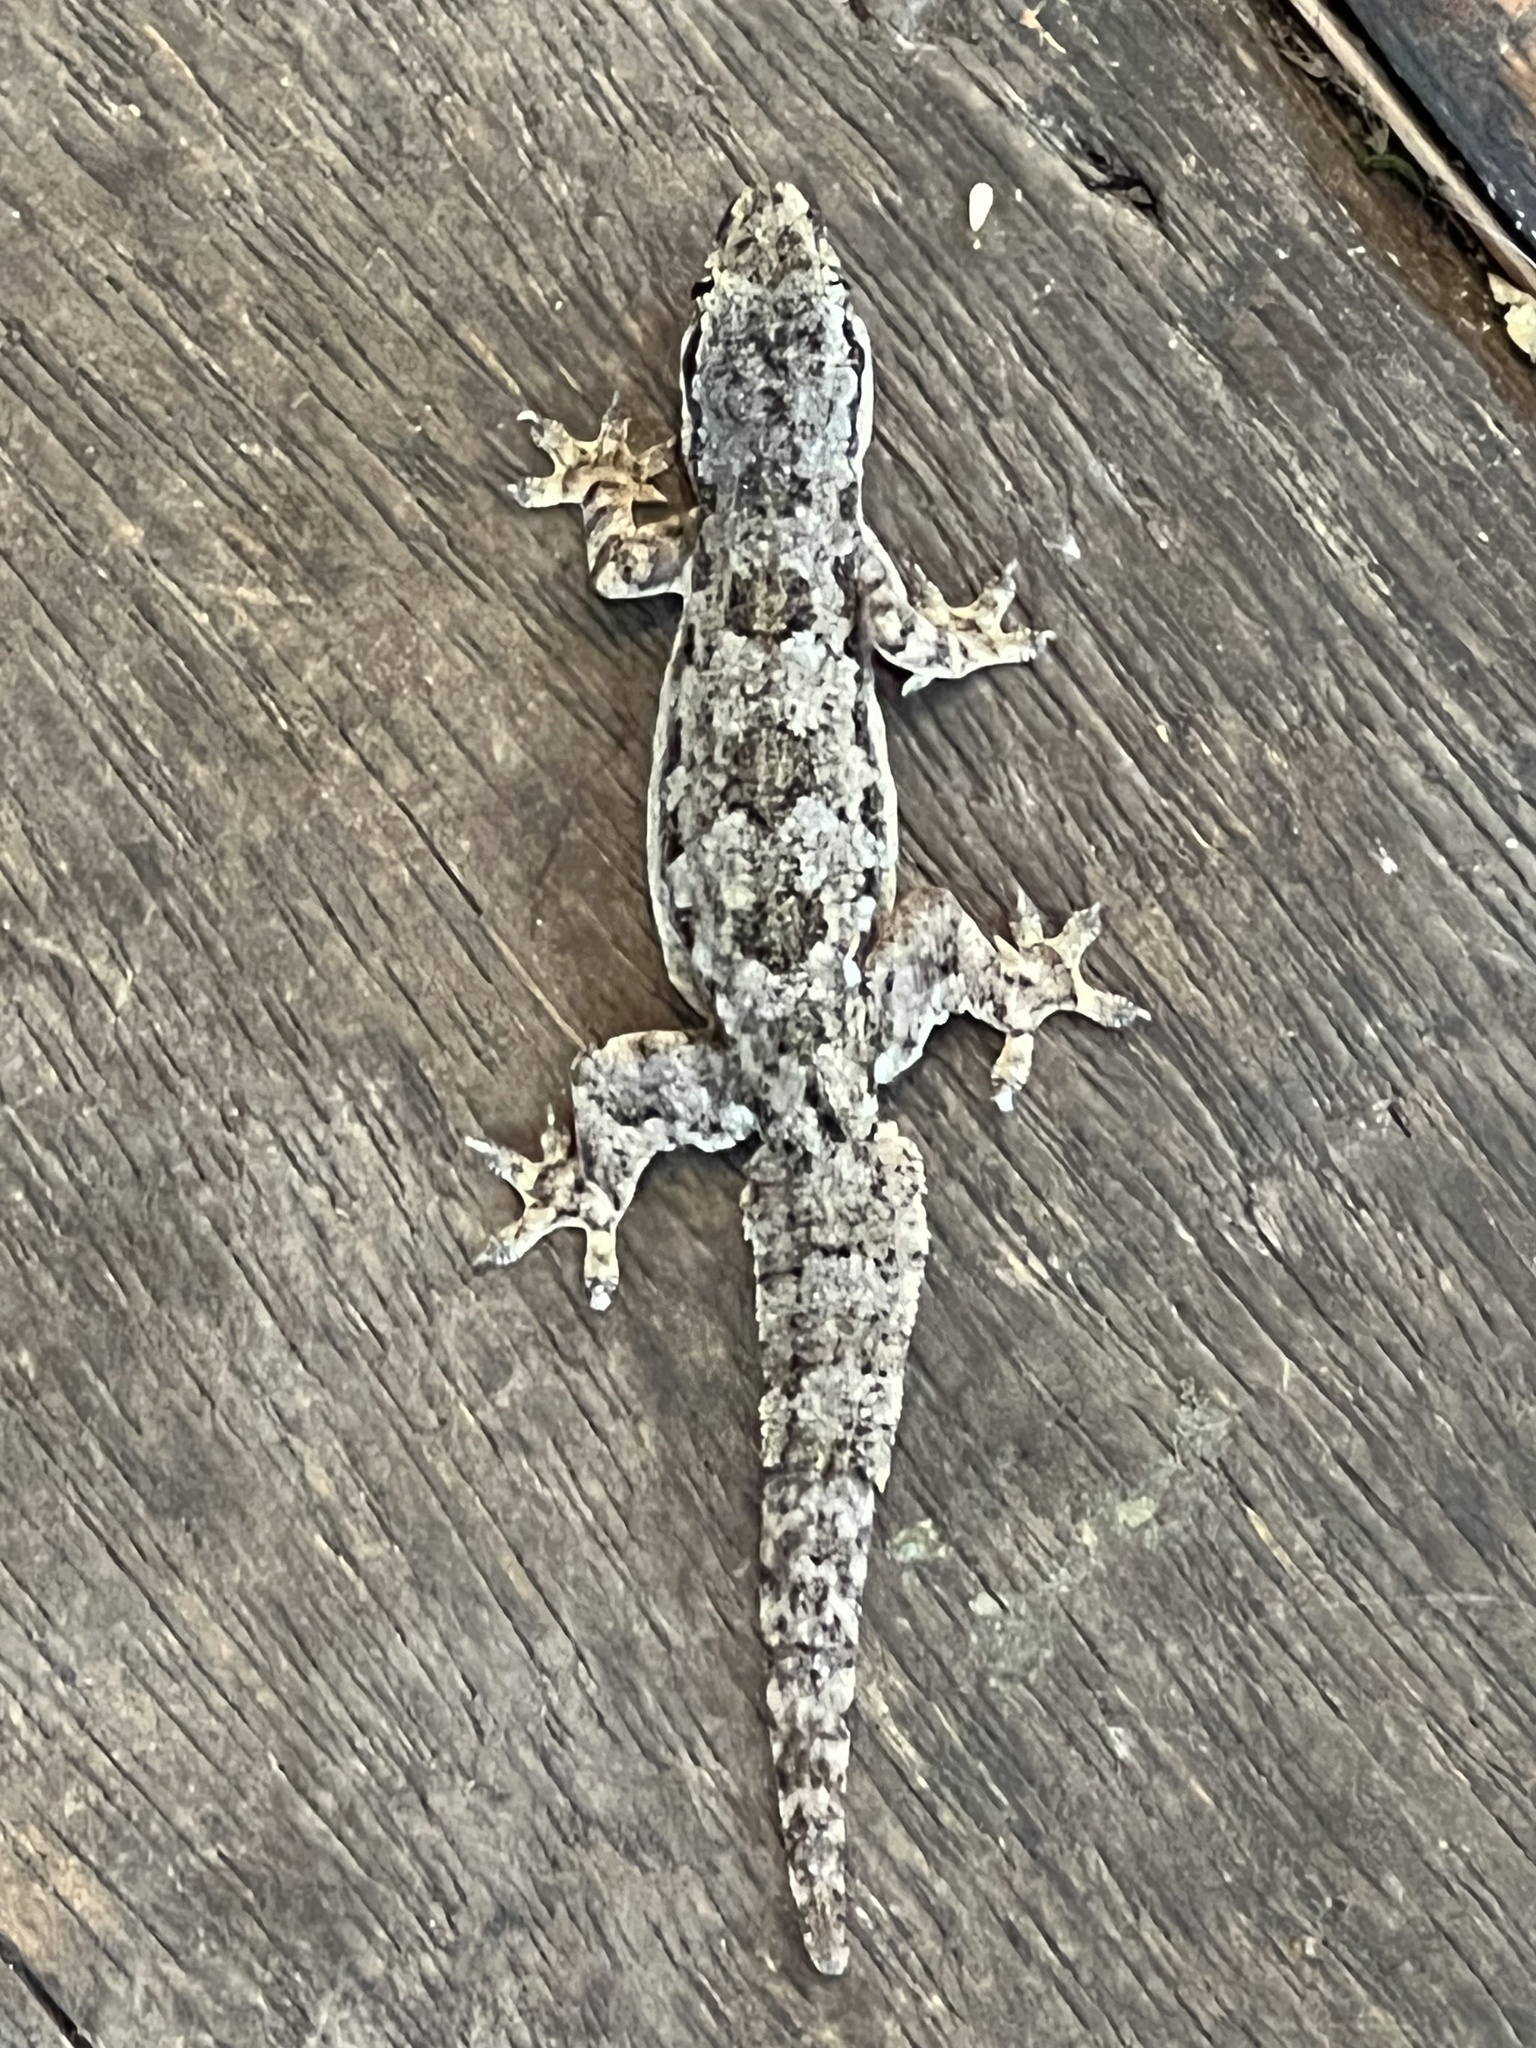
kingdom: Animalia
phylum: Chordata
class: Squamata
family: Gekkonidae
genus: Hemidactylus
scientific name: Hemidactylus platyurus
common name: Flat-tailed house gecko
